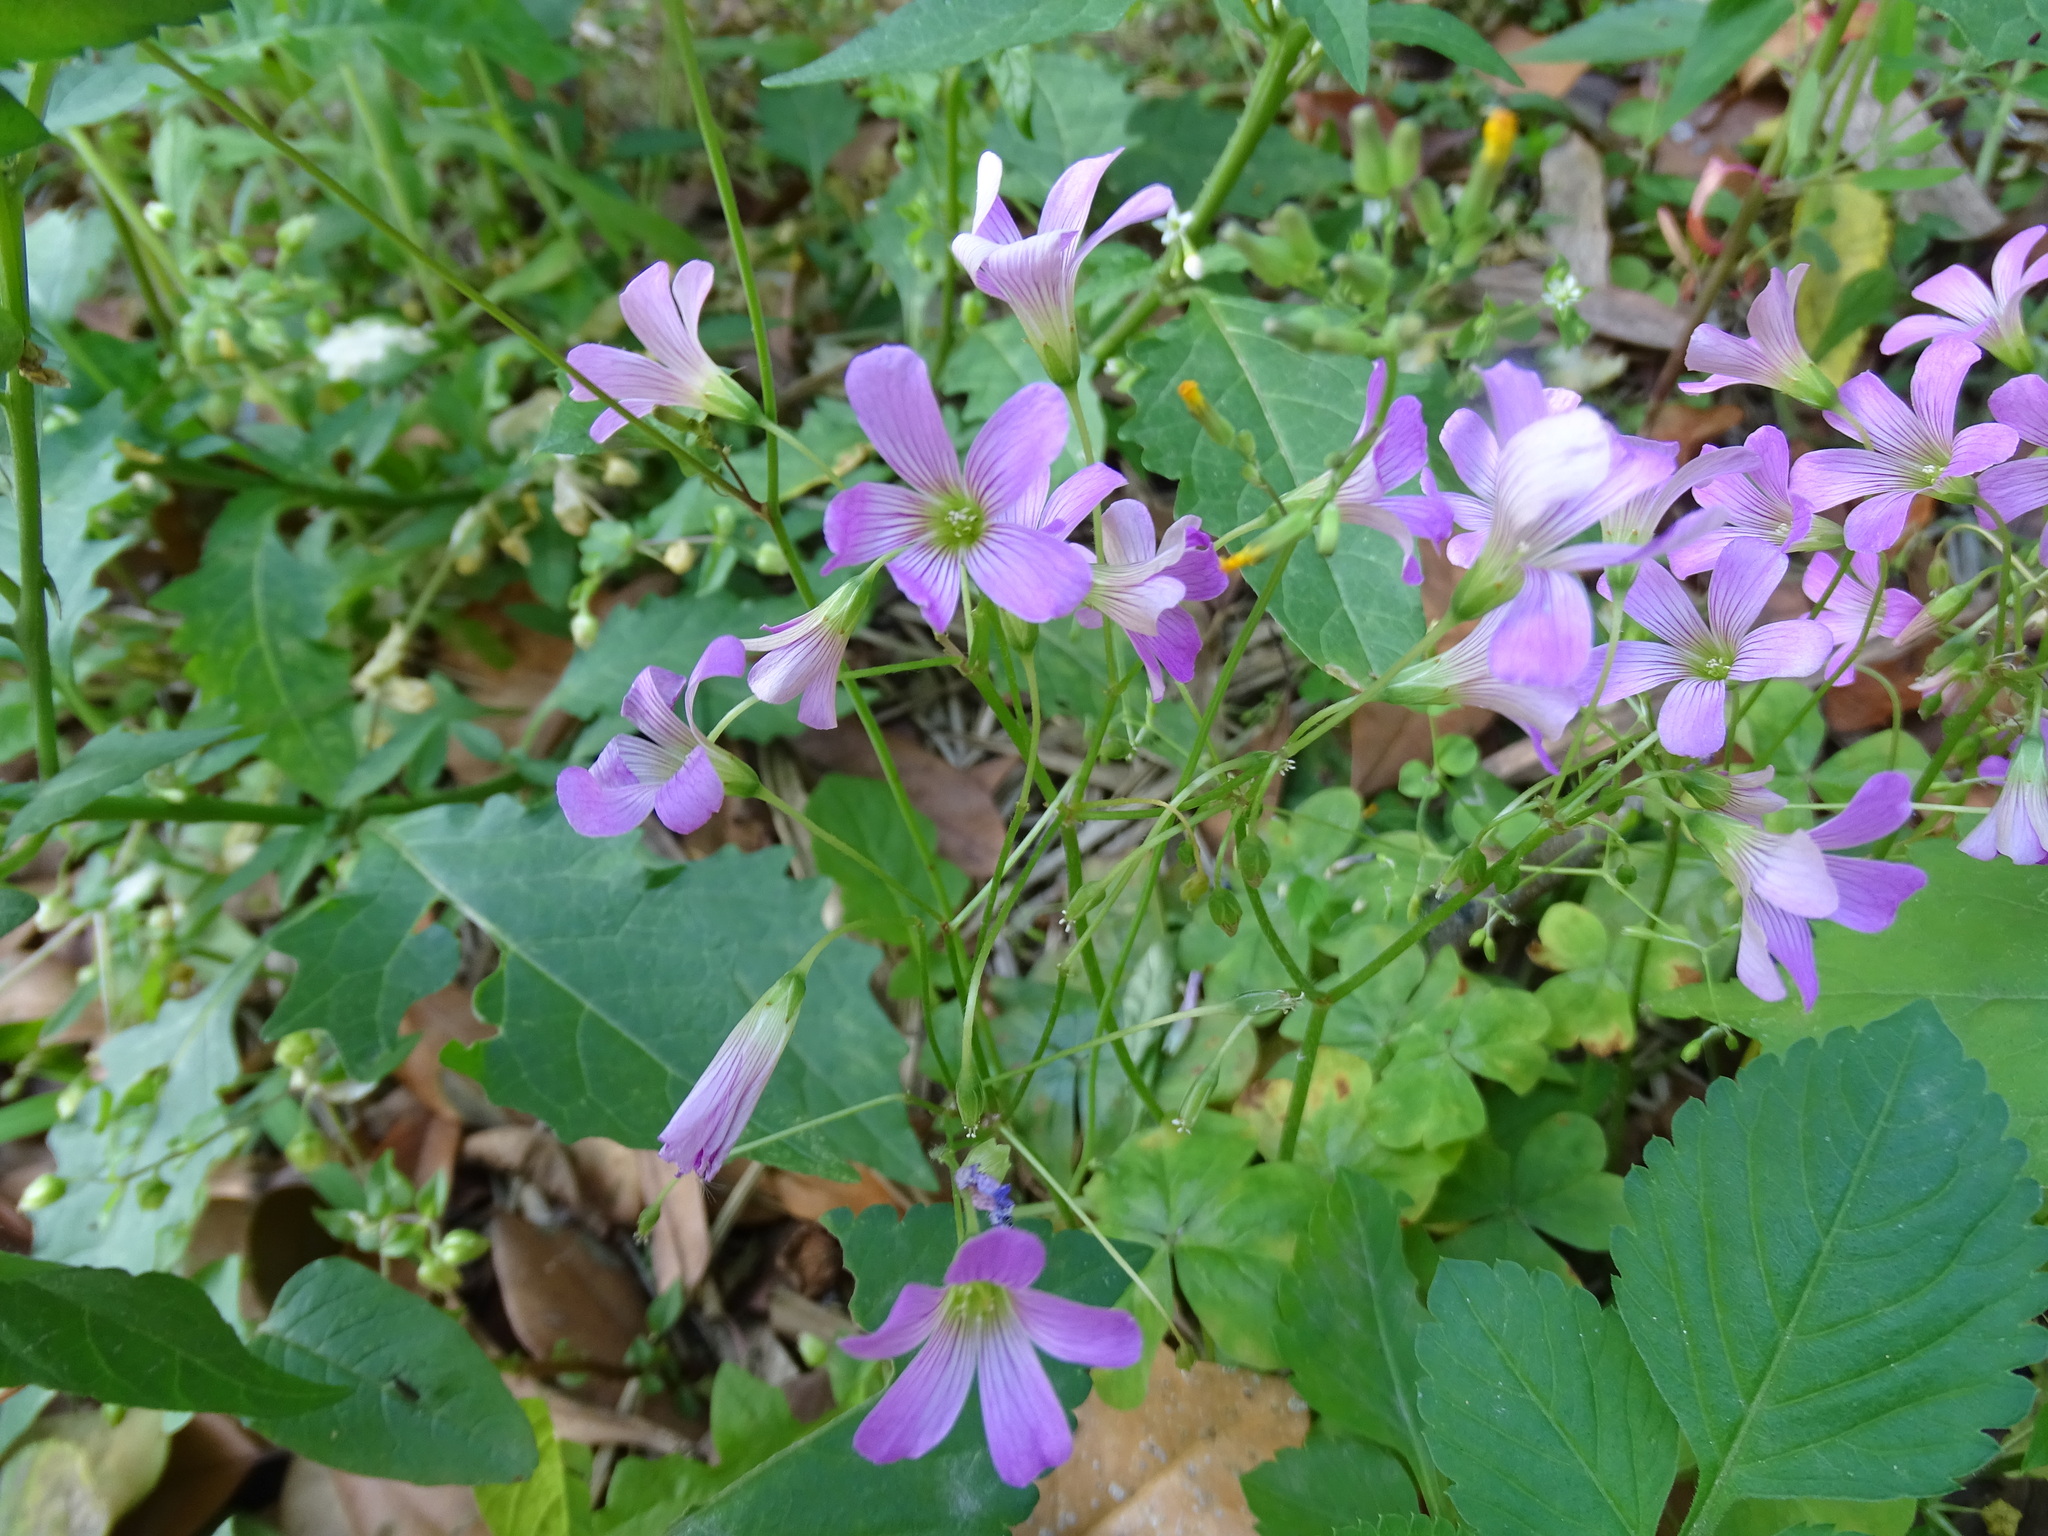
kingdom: Plantae
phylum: Tracheophyta
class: Magnoliopsida
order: Oxalidales
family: Oxalidaceae
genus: Oxalis
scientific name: Oxalis debilis
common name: Large-flowered pink-sorrel
